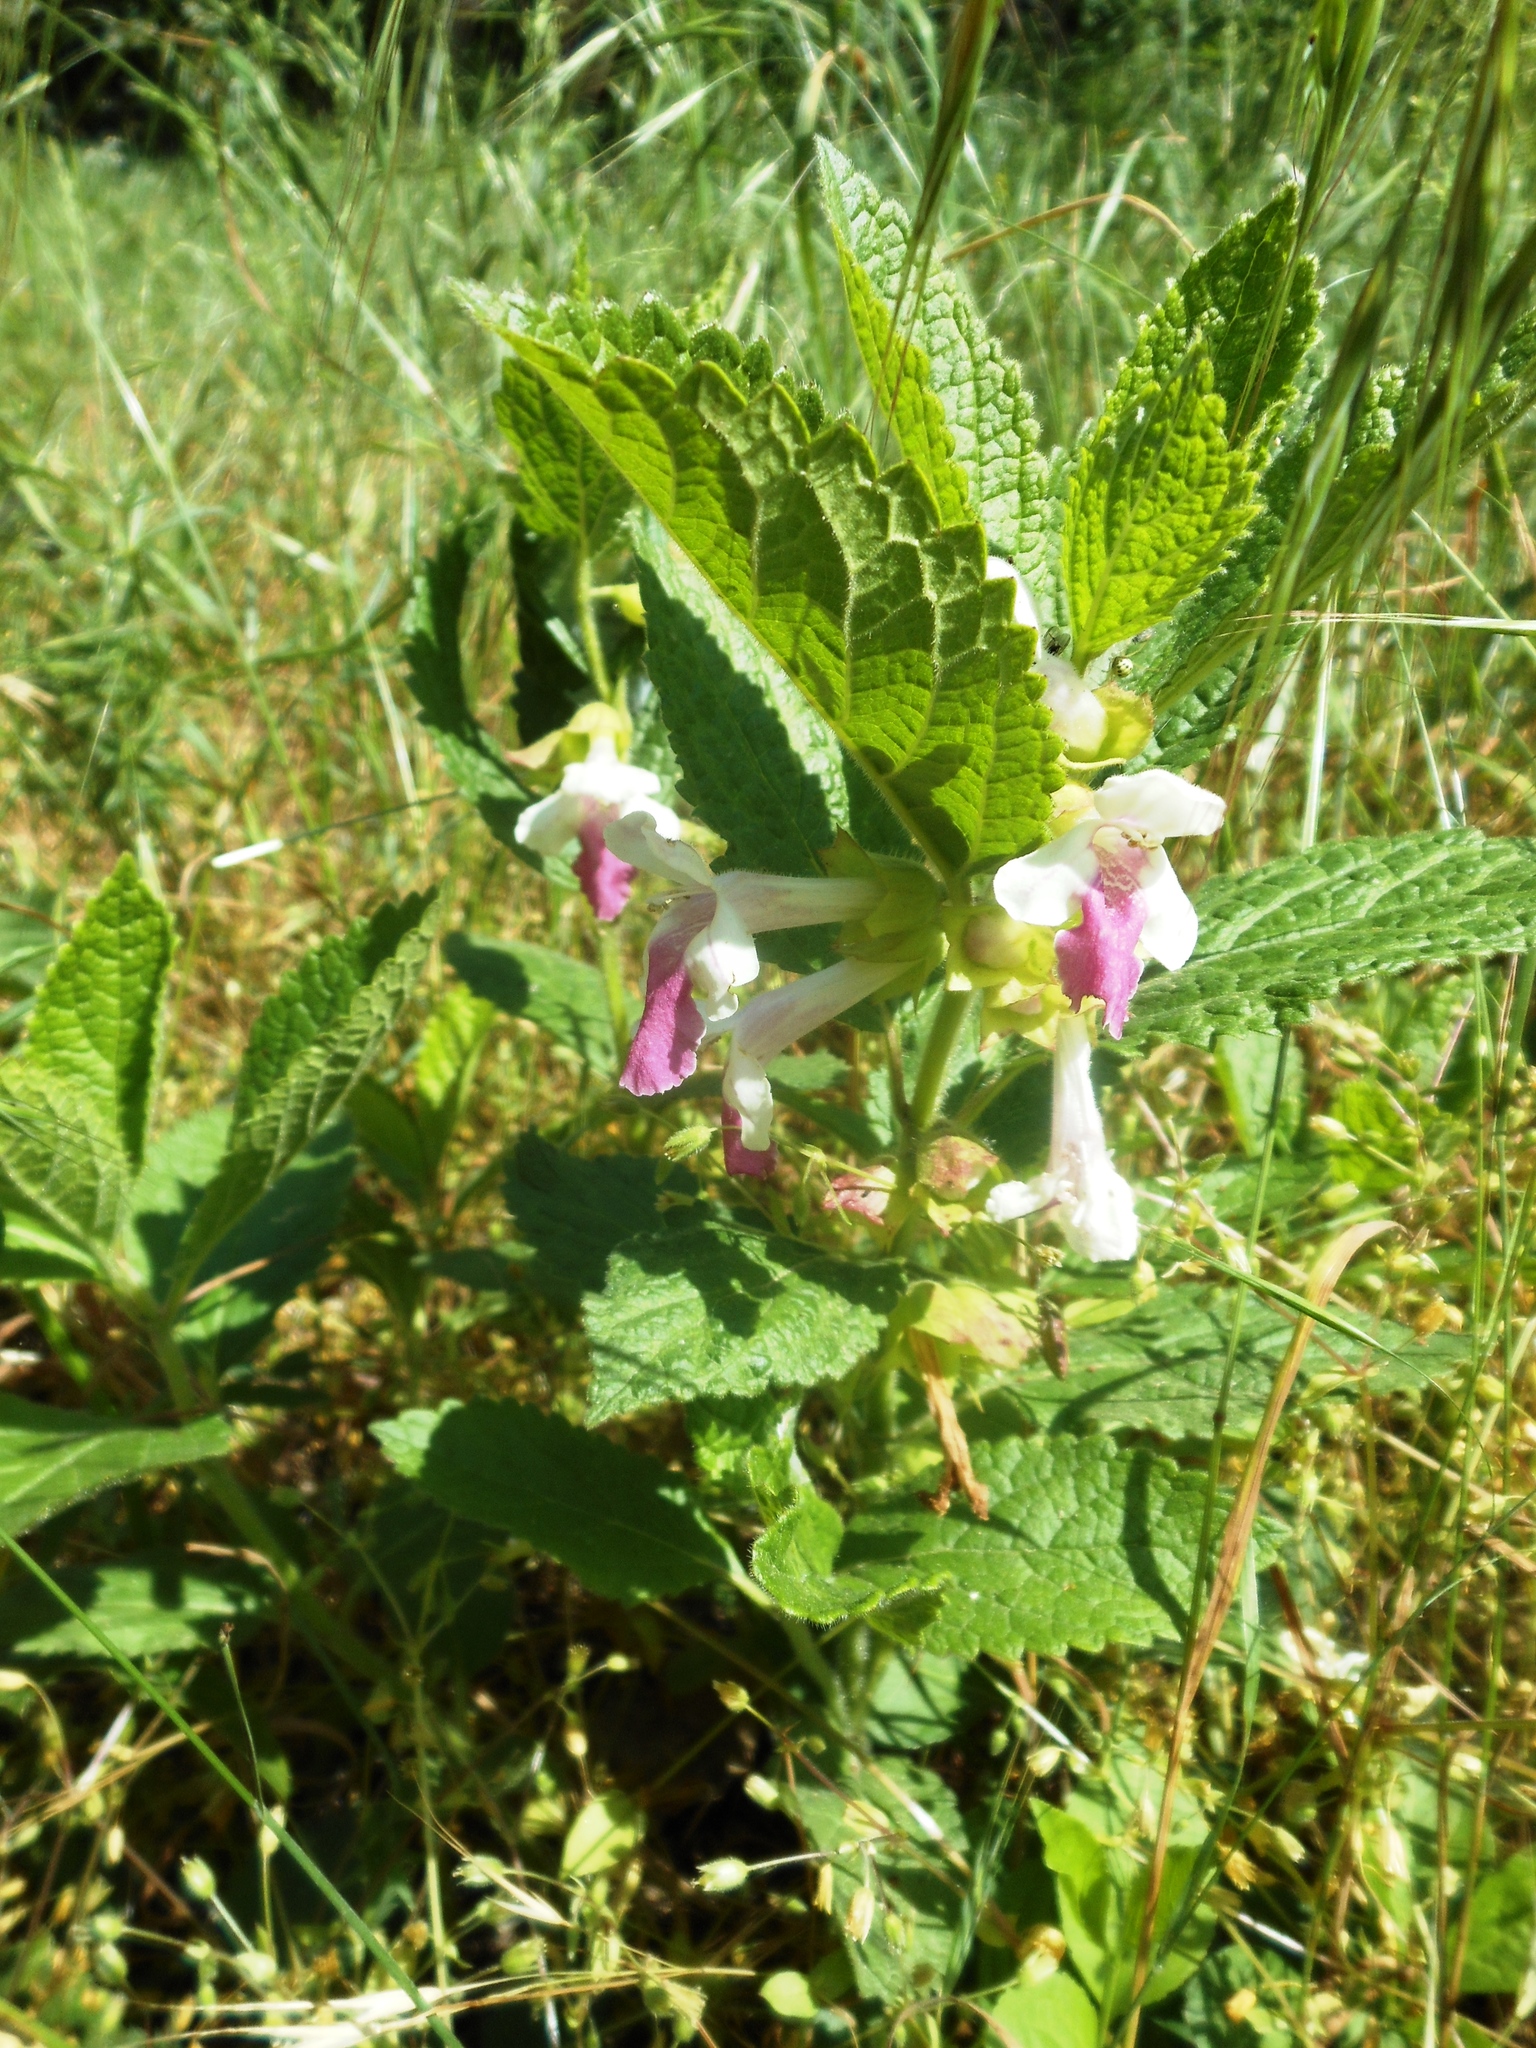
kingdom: Plantae
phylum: Tracheophyta
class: Magnoliopsida
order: Lamiales
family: Lamiaceae
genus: Melittis
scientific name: Melittis melissophyllum
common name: Bastard balm
